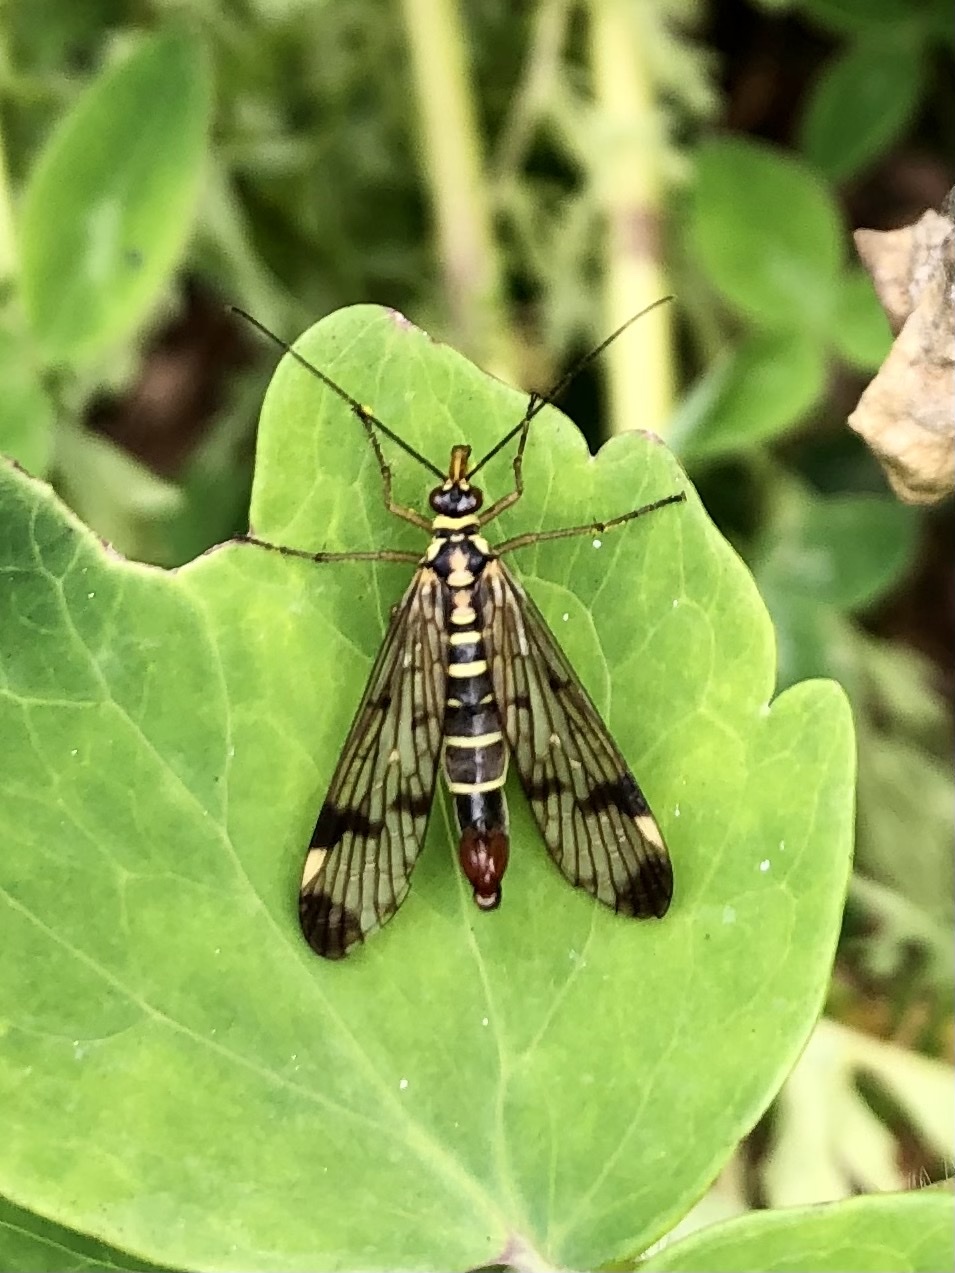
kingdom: Animalia
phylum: Arthropoda
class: Insecta
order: Mecoptera
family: Panorpidae
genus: Panorpa
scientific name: Panorpa communis
